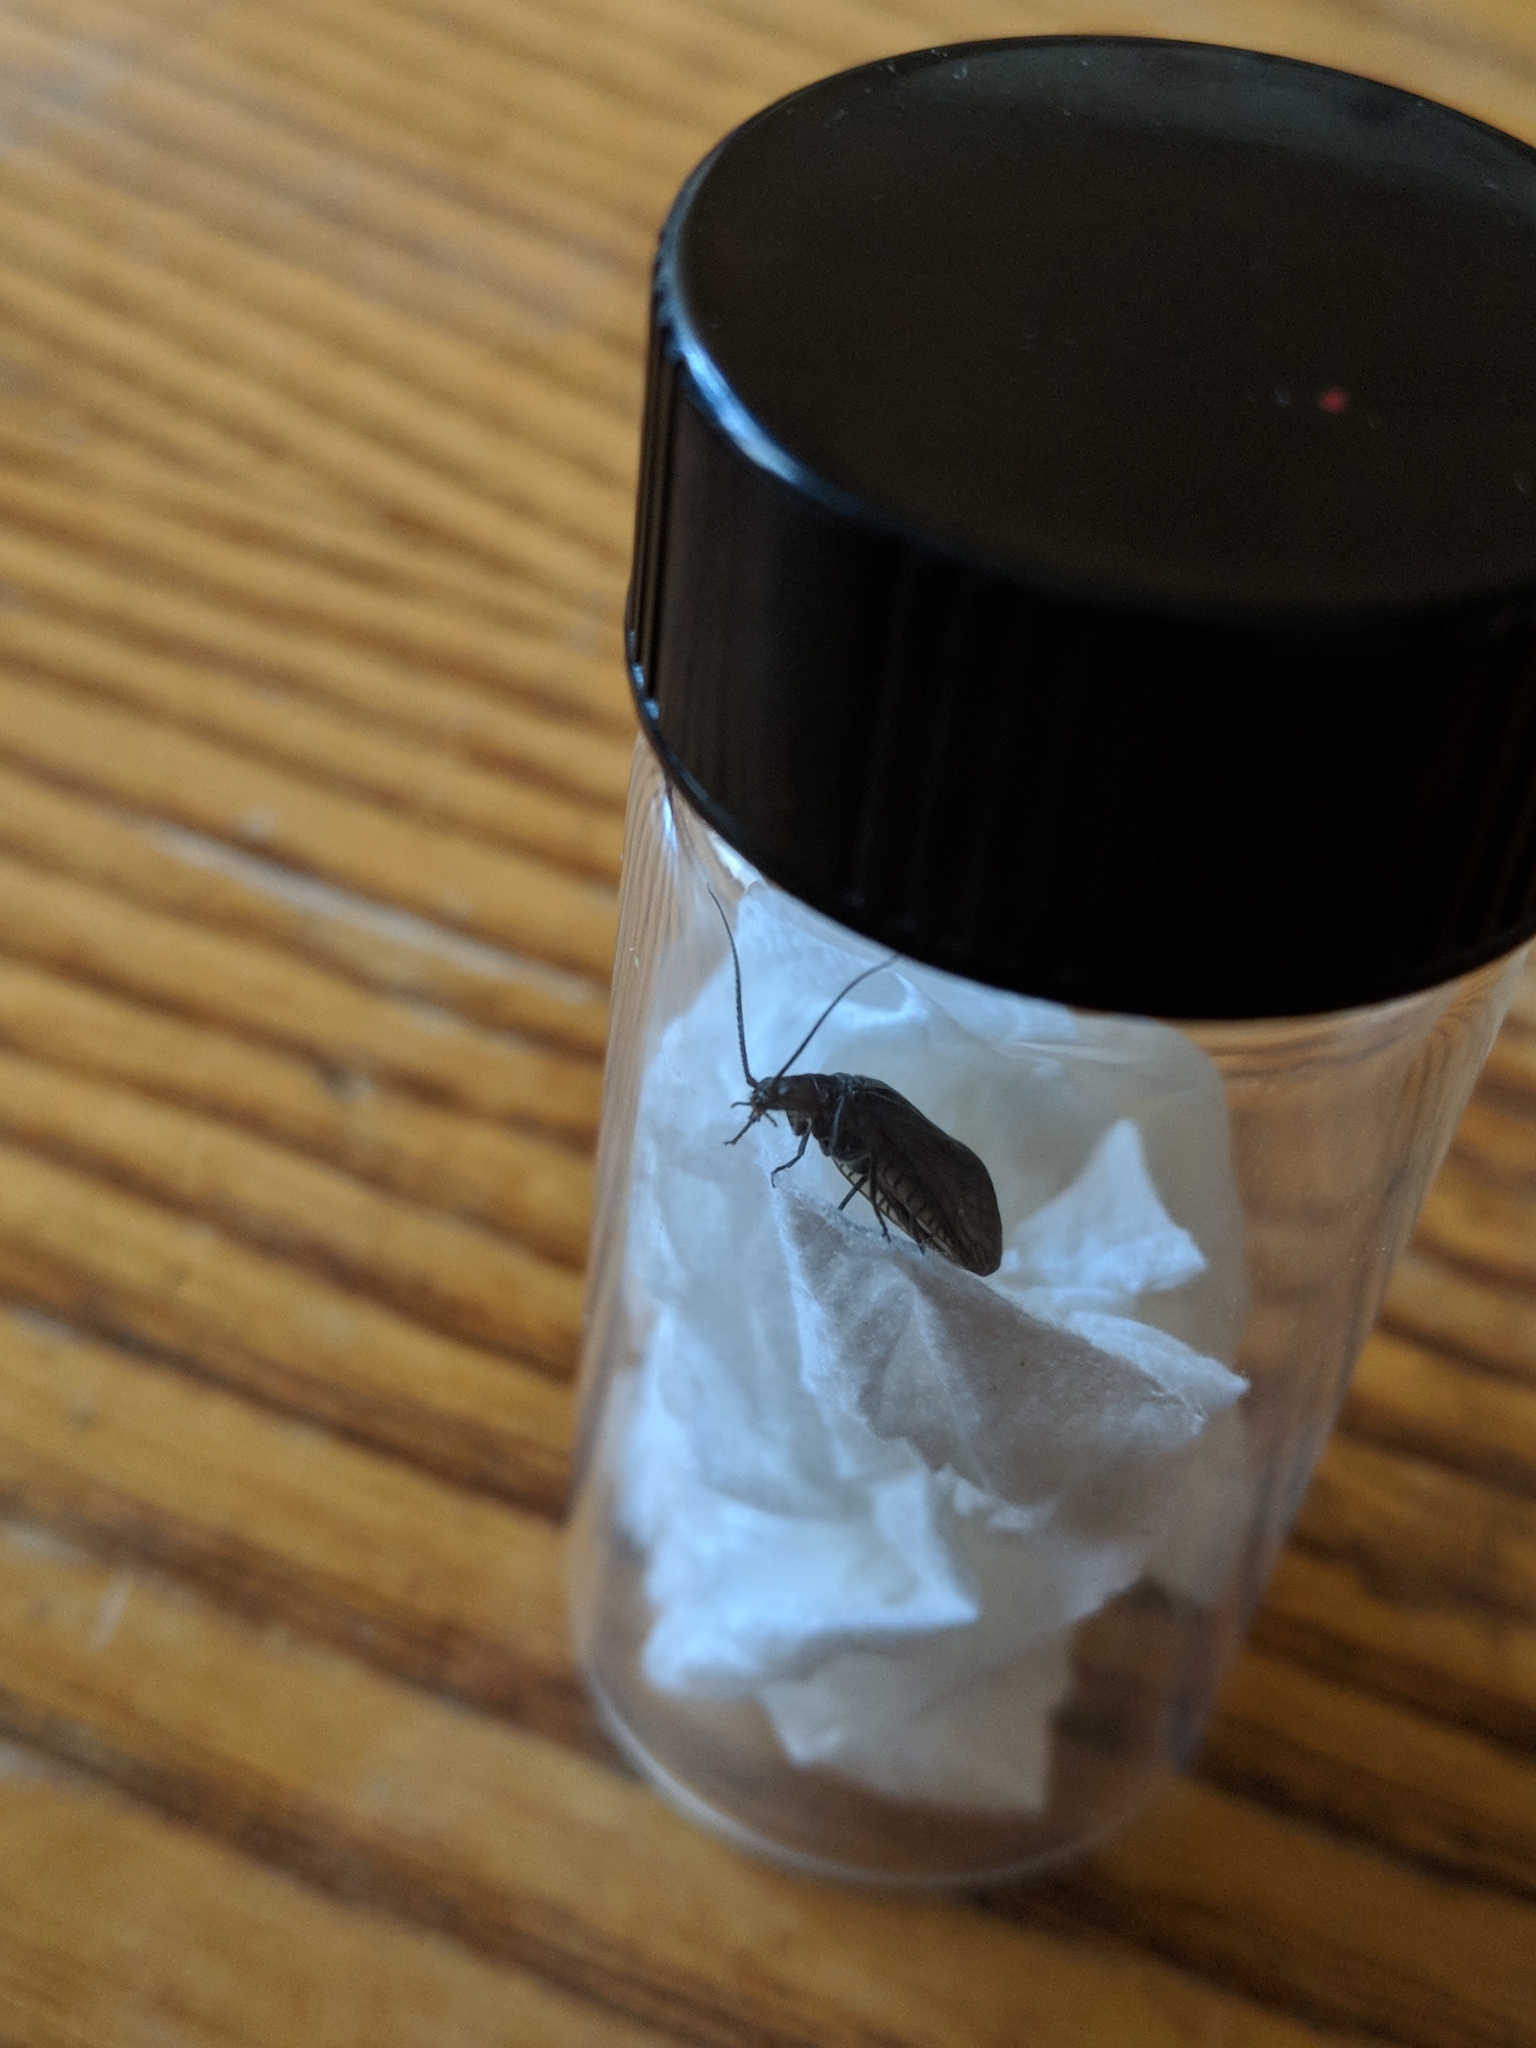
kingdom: Animalia
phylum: Arthropoda
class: Insecta
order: Megaloptera
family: Sialidae
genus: Sialis
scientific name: Sialis
